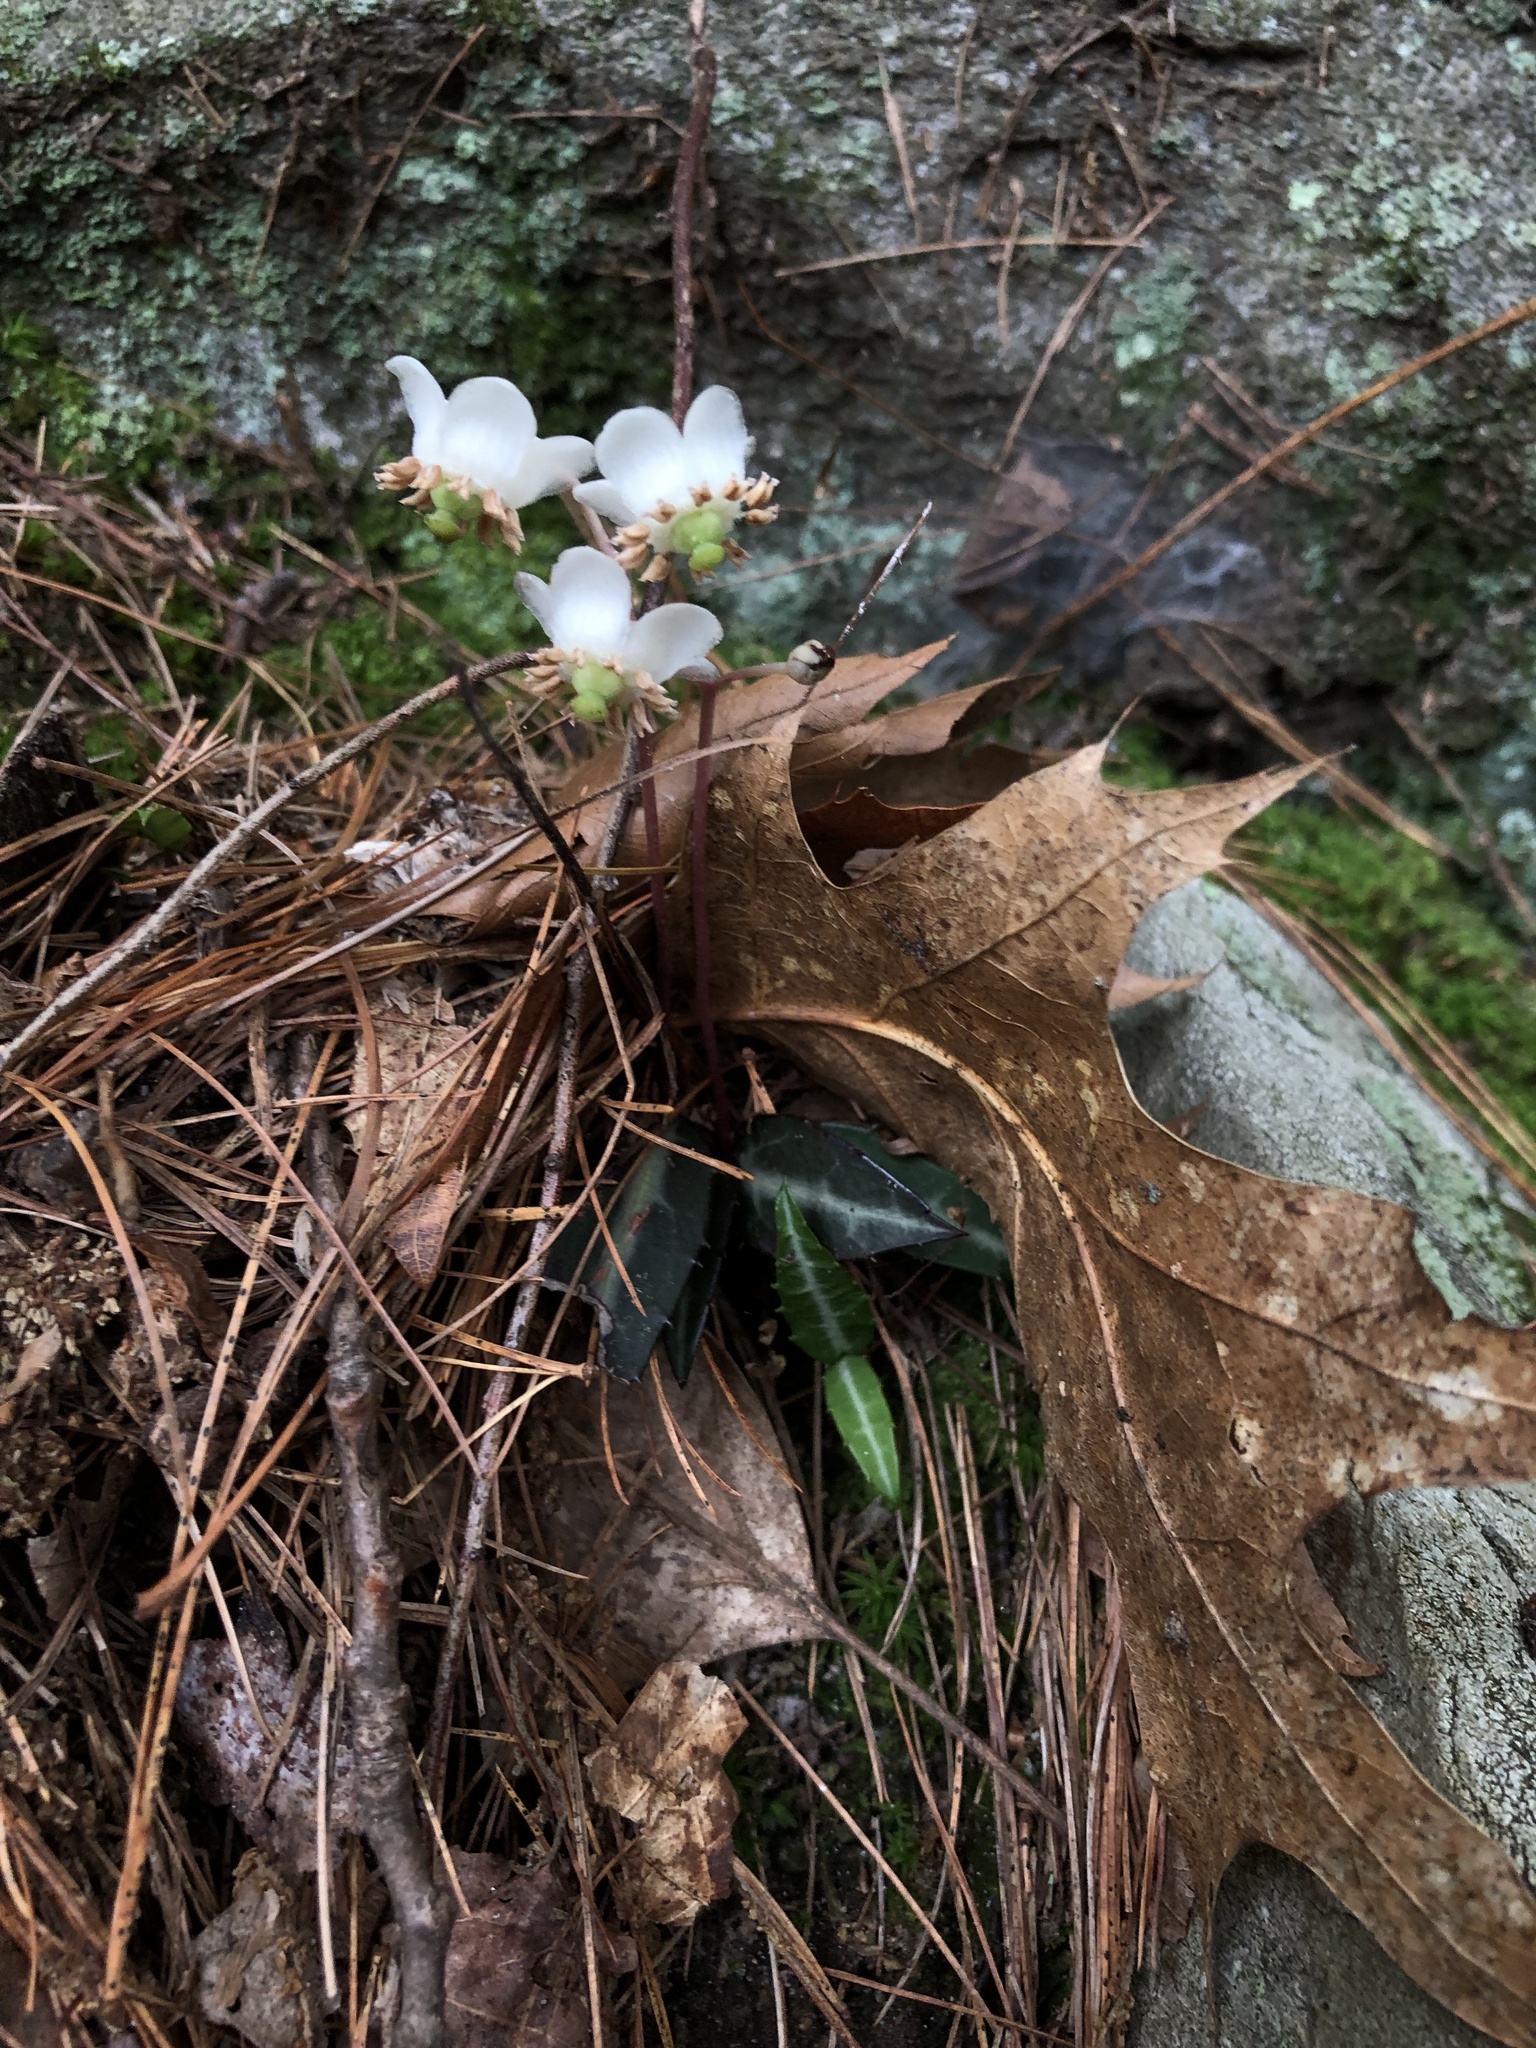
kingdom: Plantae
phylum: Tracheophyta
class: Magnoliopsida
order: Ericales
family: Ericaceae
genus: Chimaphila
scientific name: Chimaphila maculata
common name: Spotted pipsissewa
